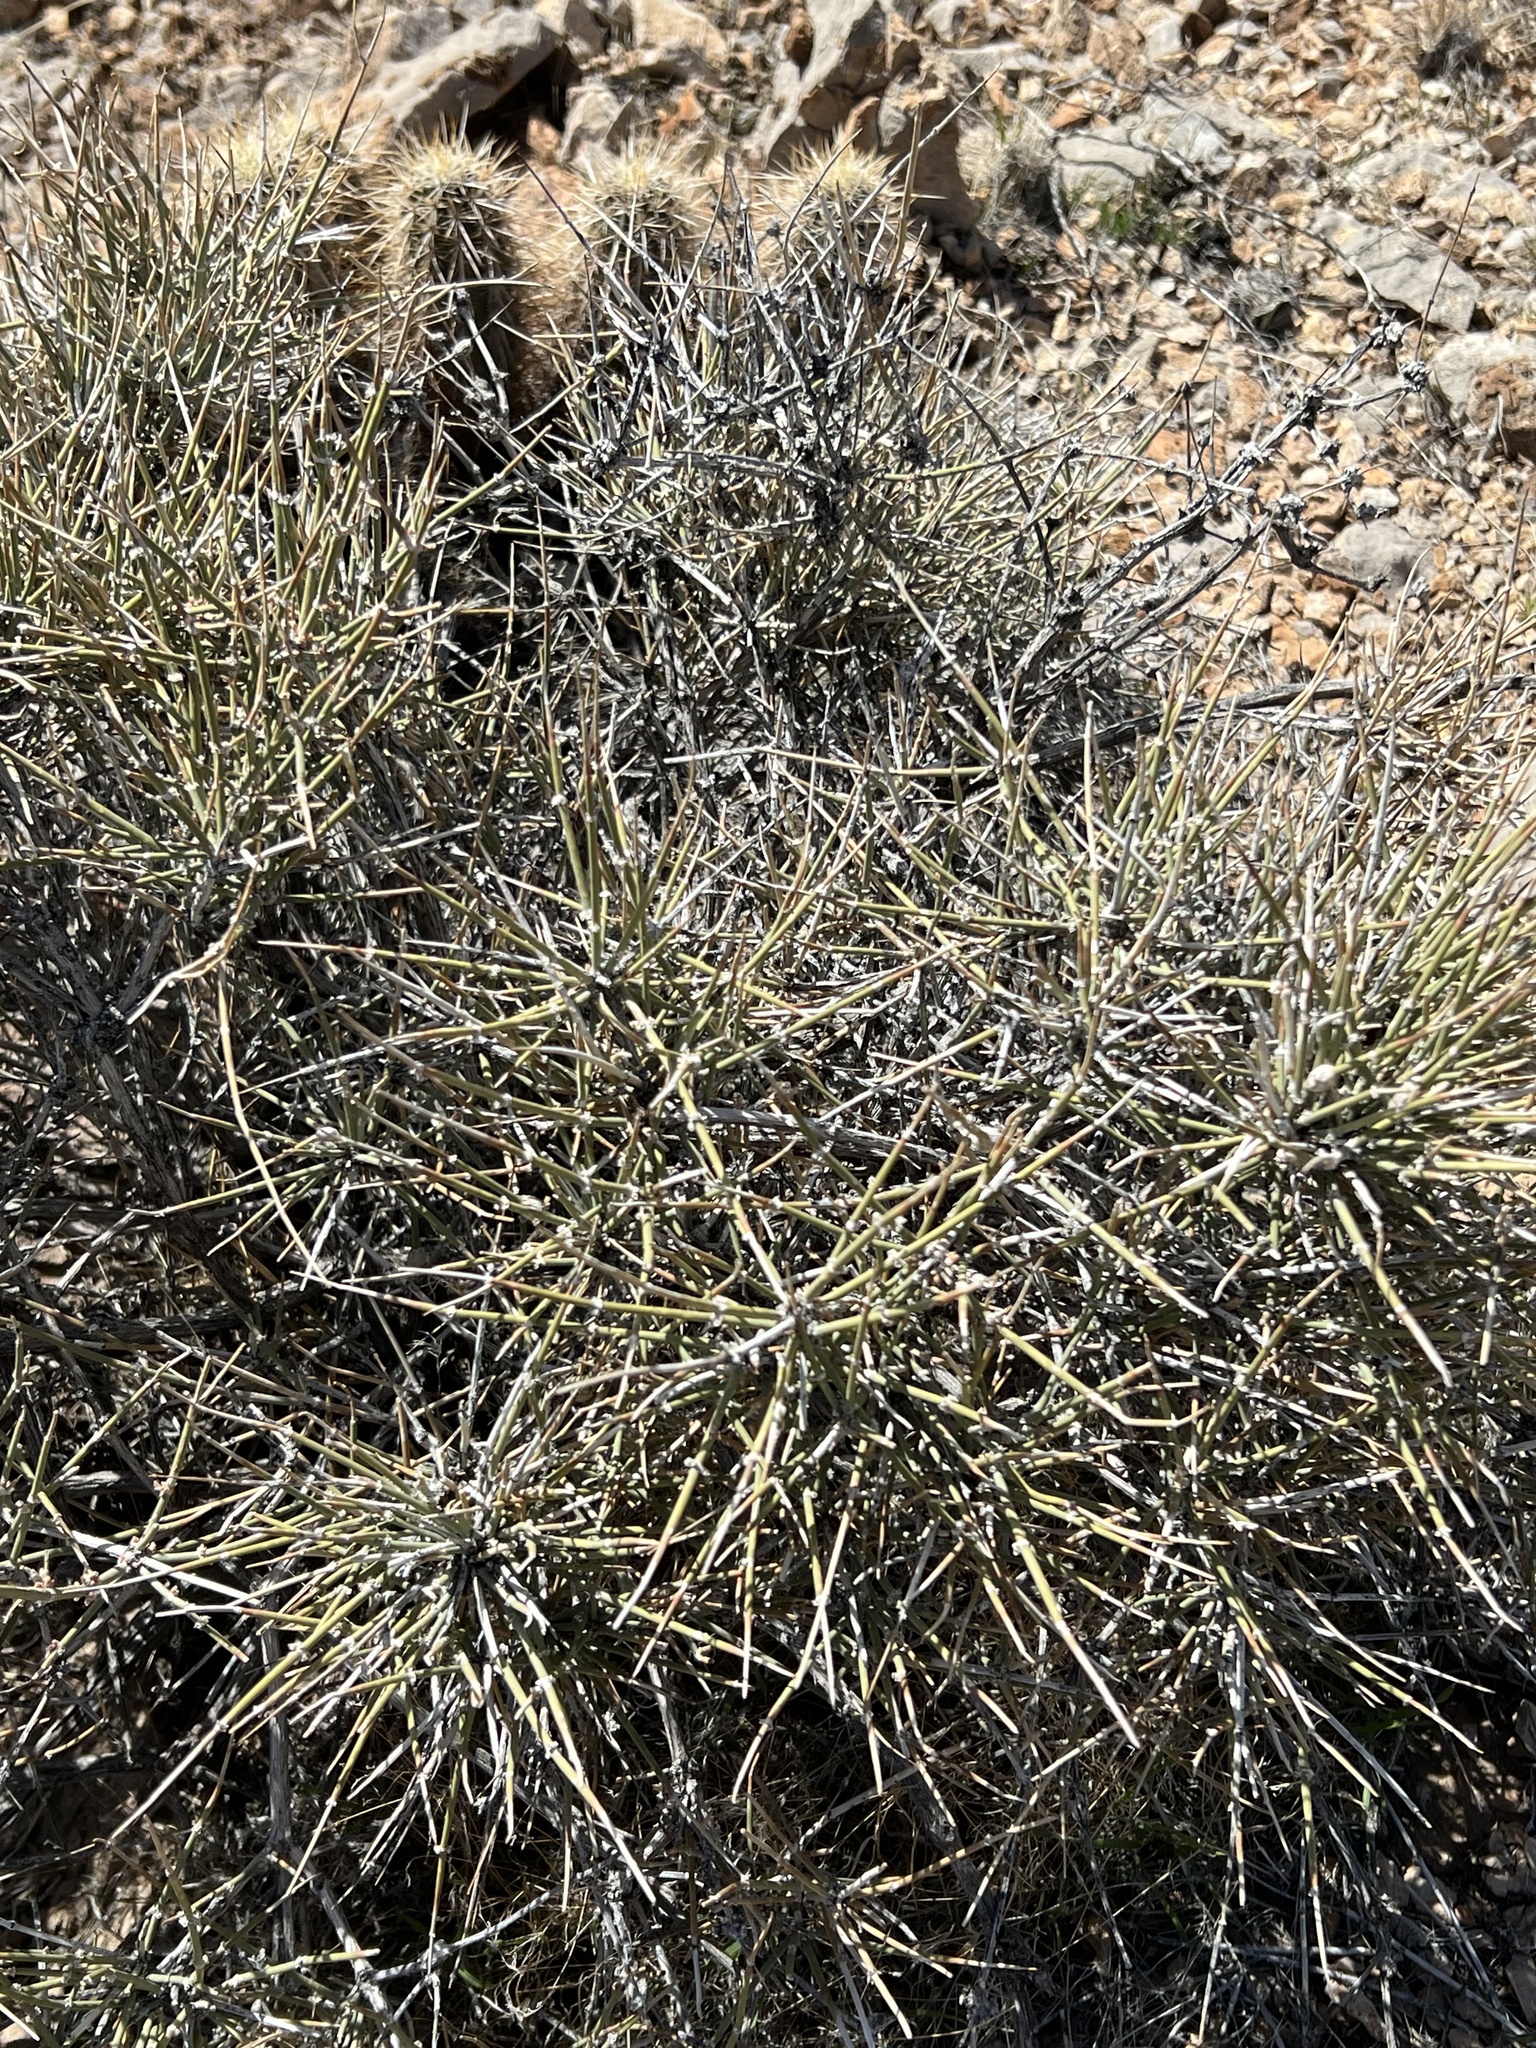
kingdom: Plantae
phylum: Tracheophyta
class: Gnetopsida
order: Ephedrales
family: Ephedraceae
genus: Ephedra
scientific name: Ephedra nevadensis
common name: Gray ephedra
